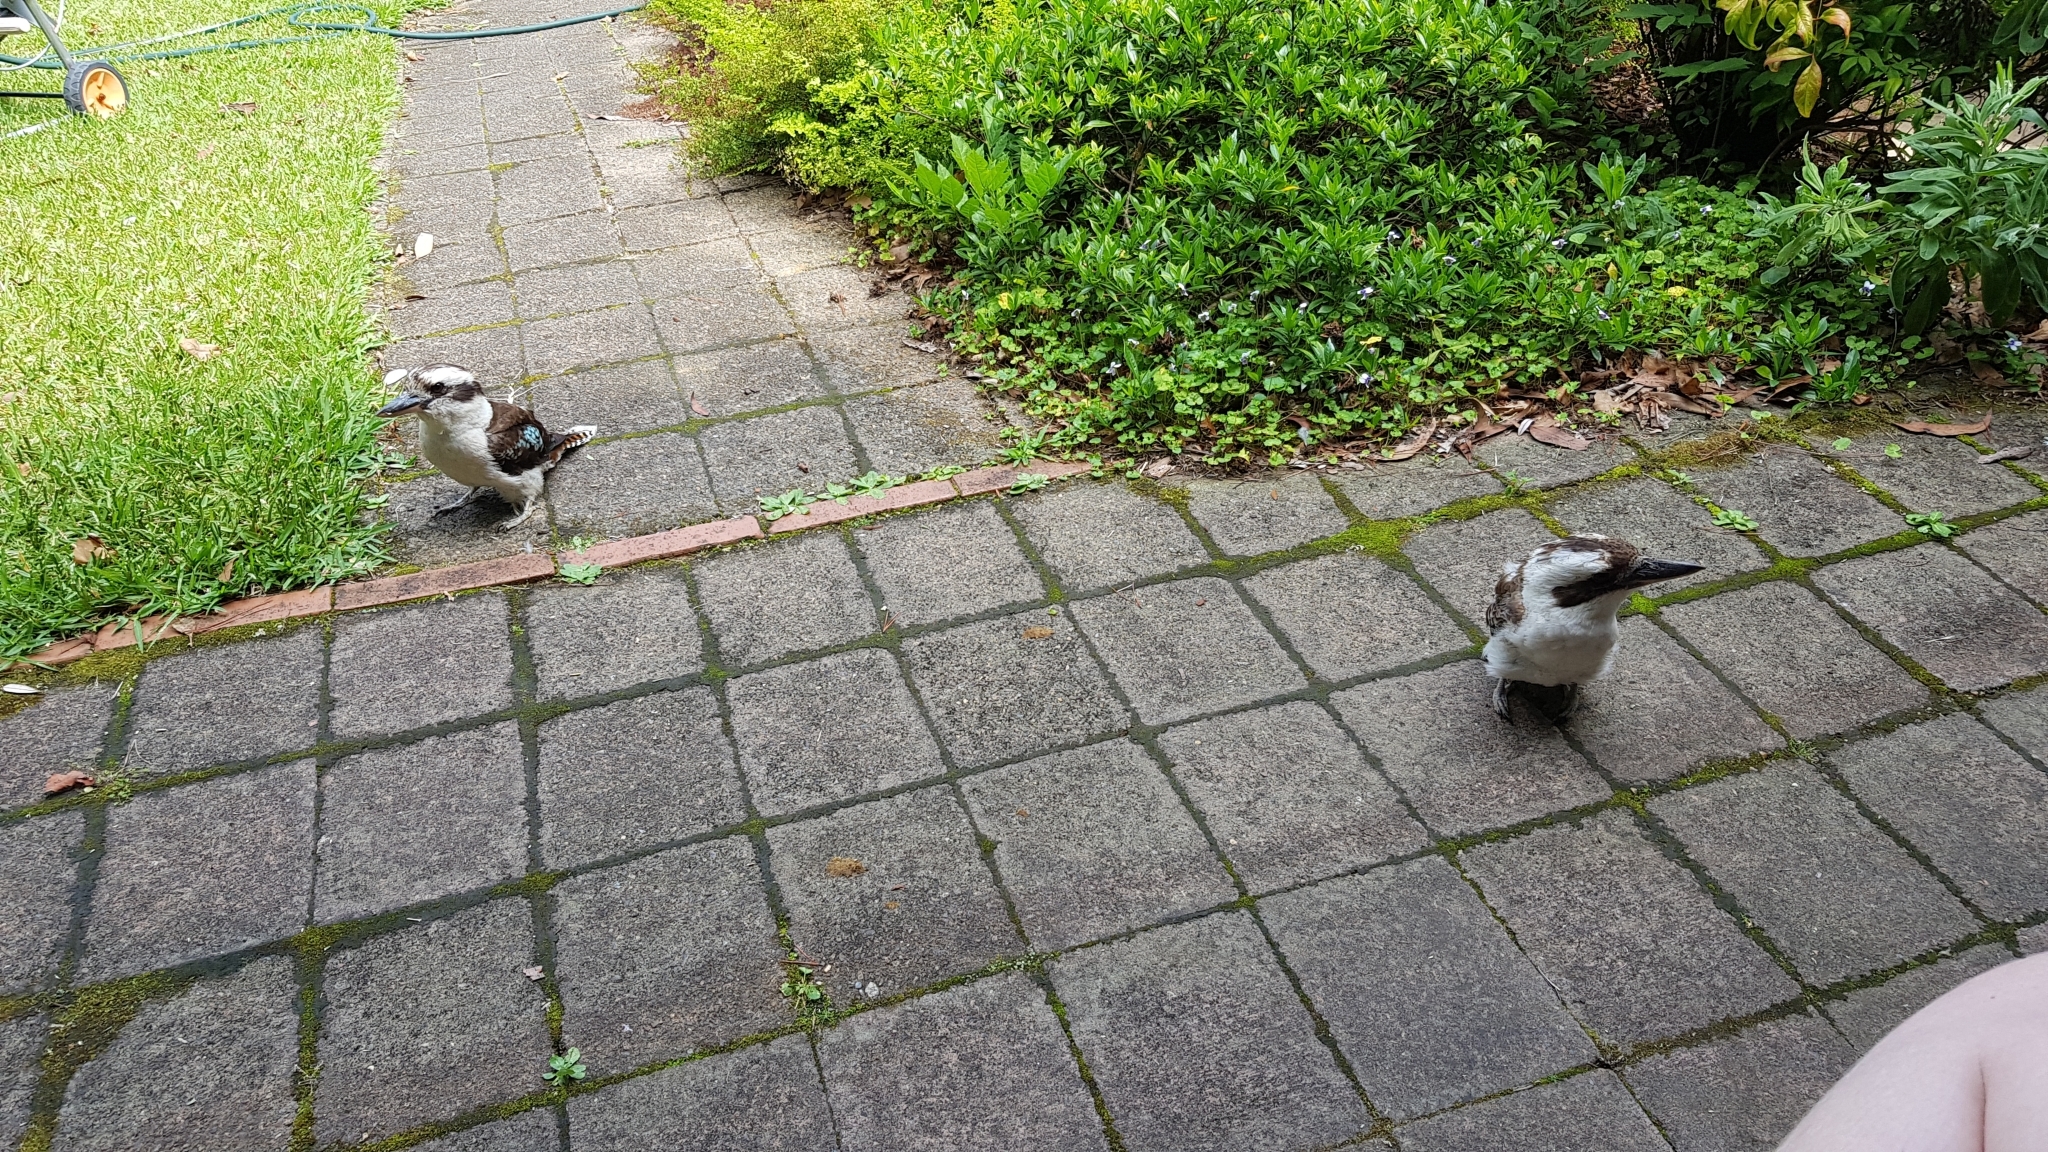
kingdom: Animalia
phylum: Chordata
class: Aves
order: Coraciiformes
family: Alcedinidae
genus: Dacelo
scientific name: Dacelo novaeguineae
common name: Laughing kookaburra
